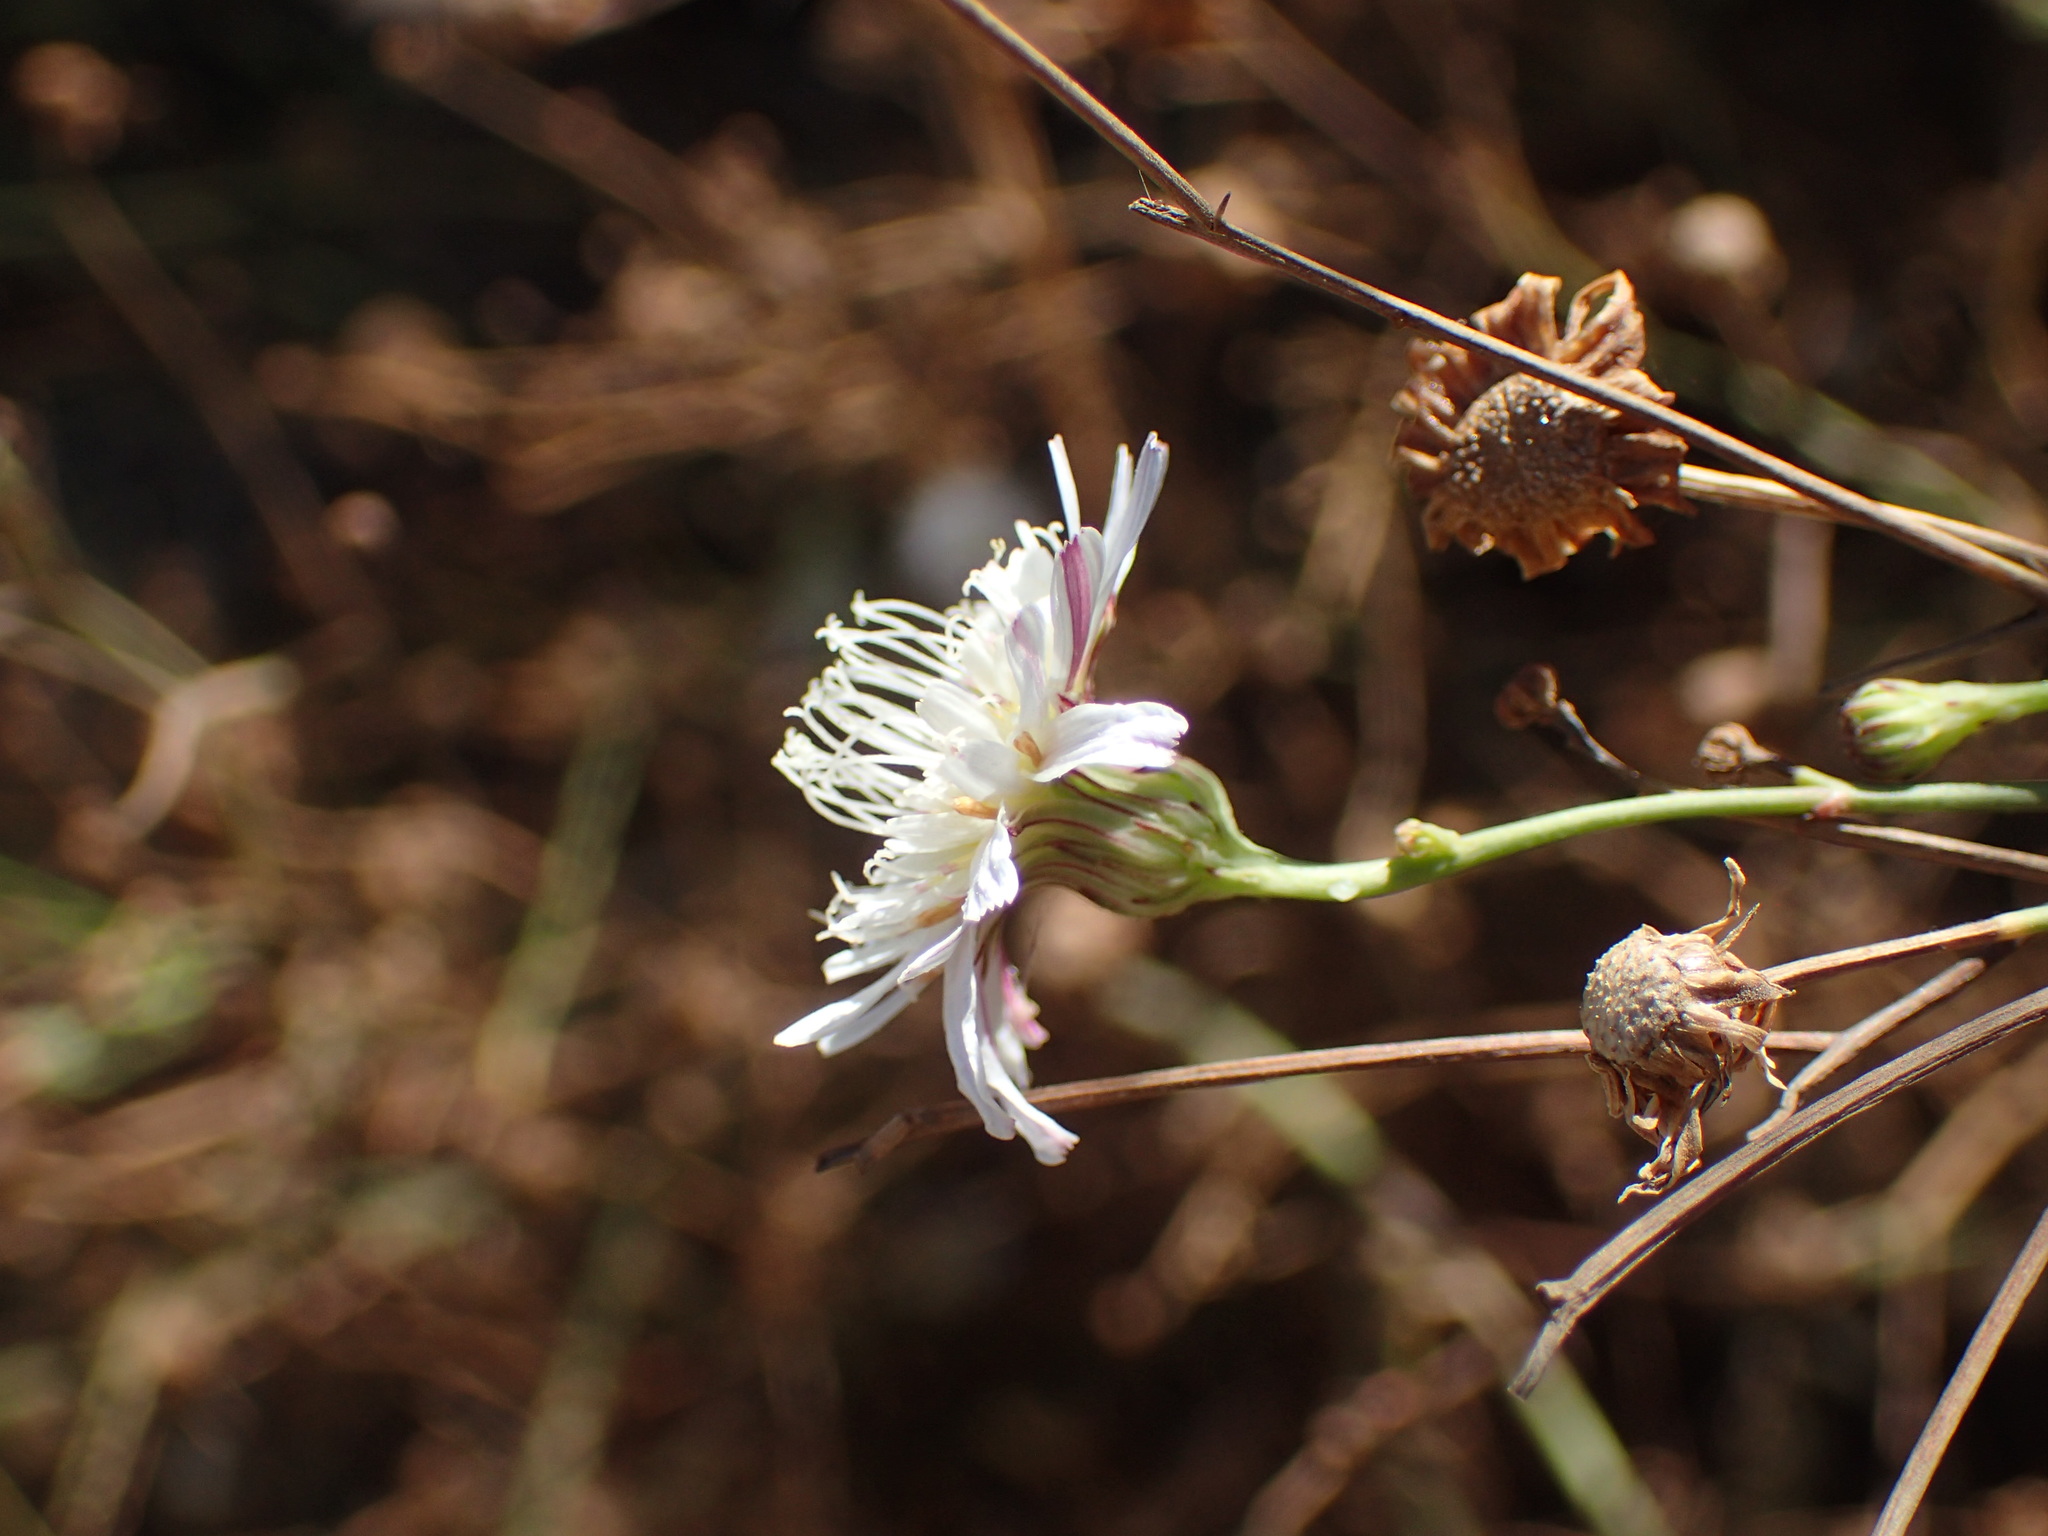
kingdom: Plantae
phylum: Tracheophyta
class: Magnoliopsida
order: Asterales
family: Asteraceae
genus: Malacothrix
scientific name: Malacothrix saxatilis
